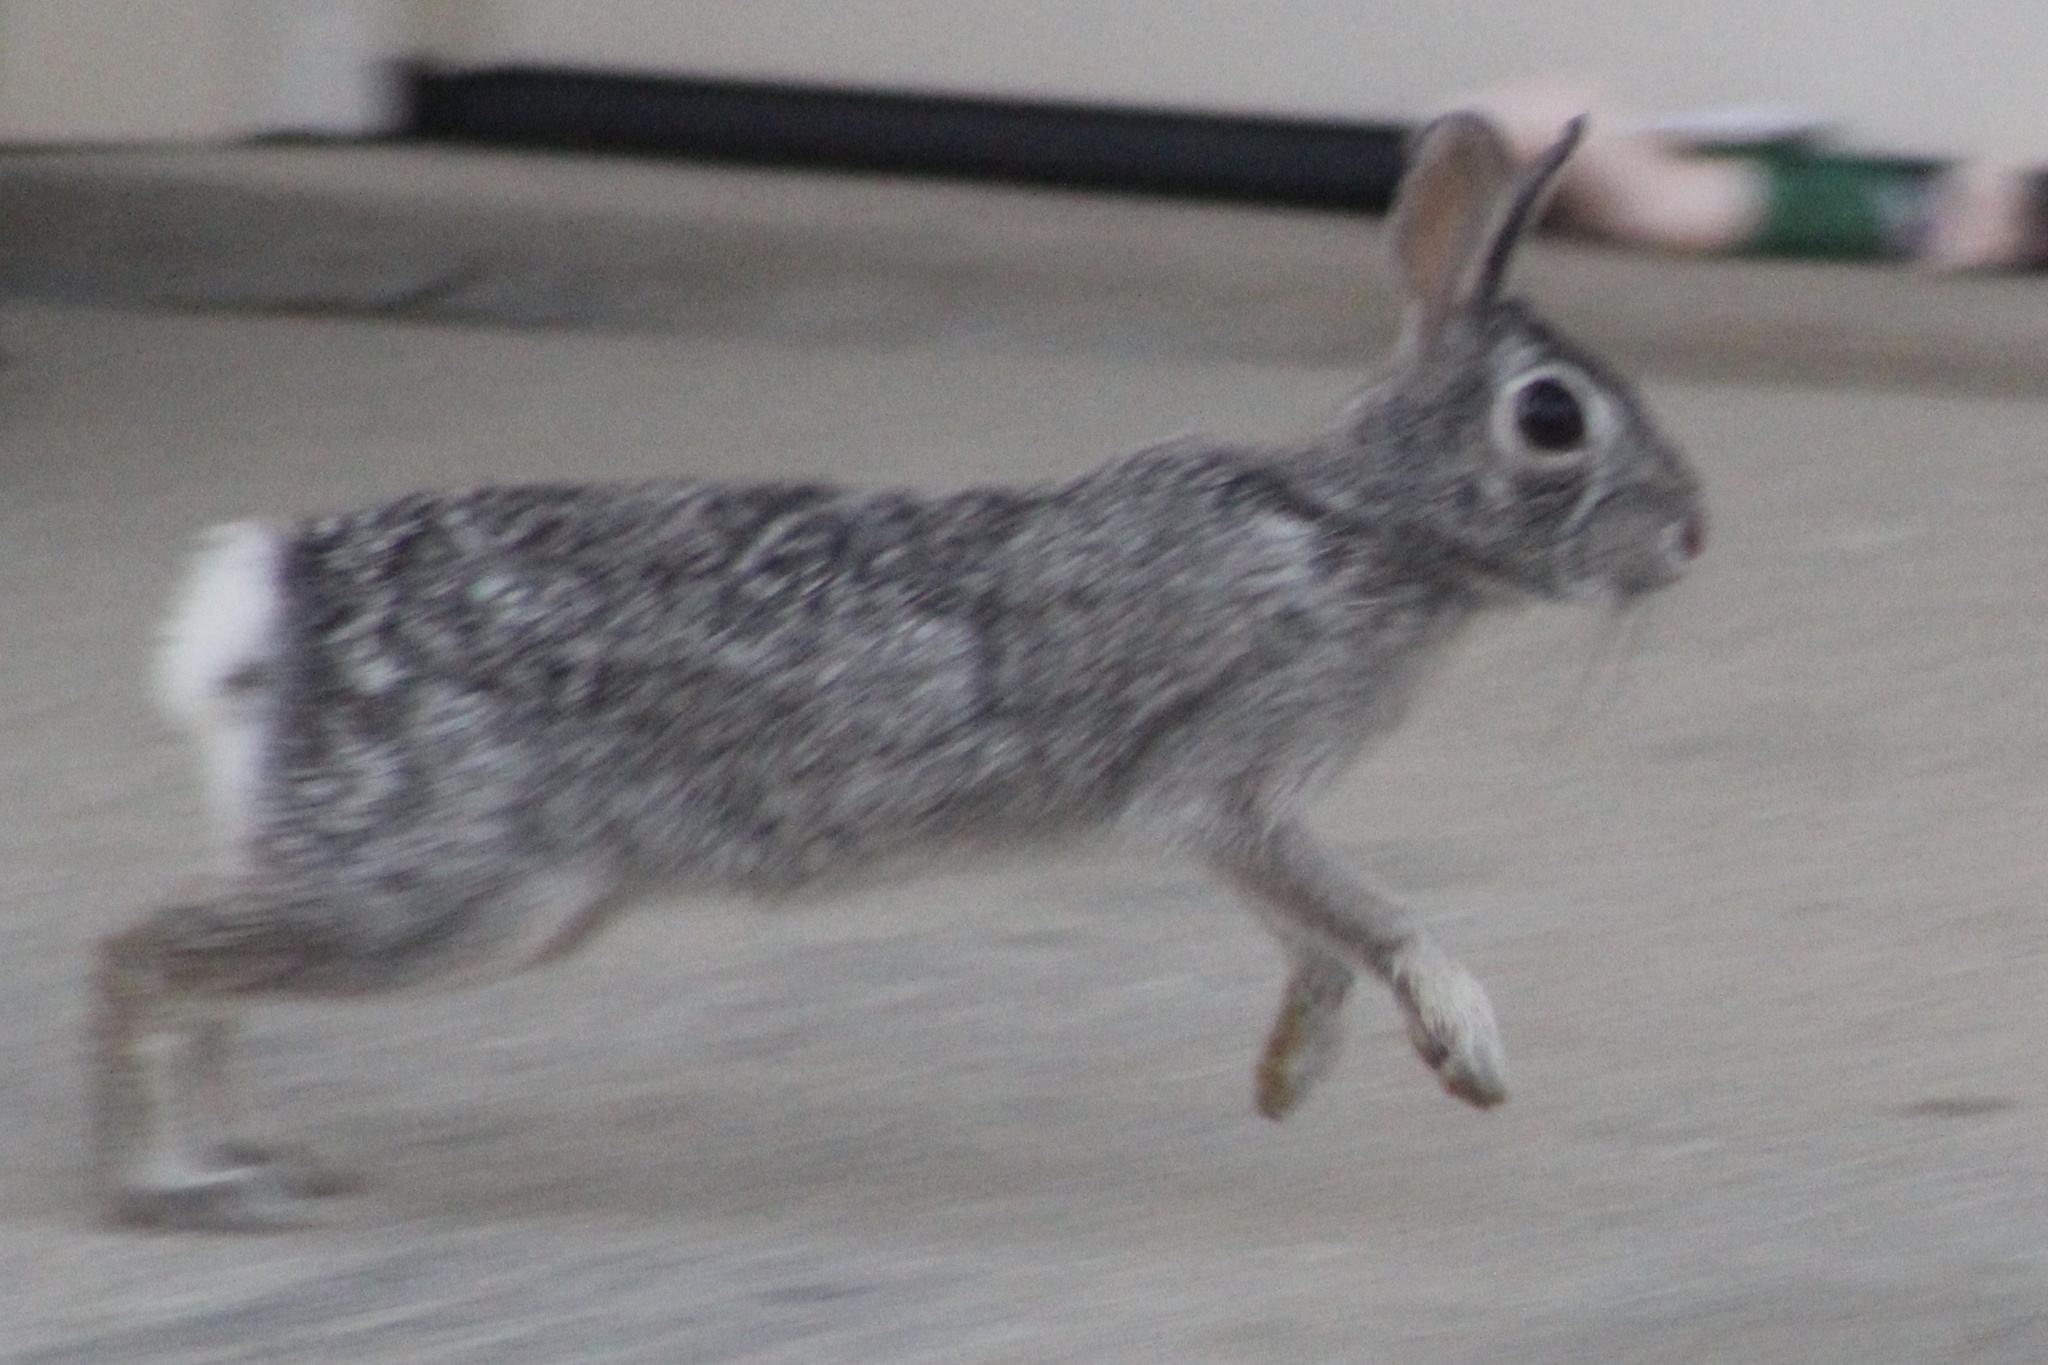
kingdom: Animalia
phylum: Chordata
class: Mammalia
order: Lagomorpha
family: Leporidae
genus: Sylvilagus
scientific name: Sylvilagus floridanus
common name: Eastern cottontail
